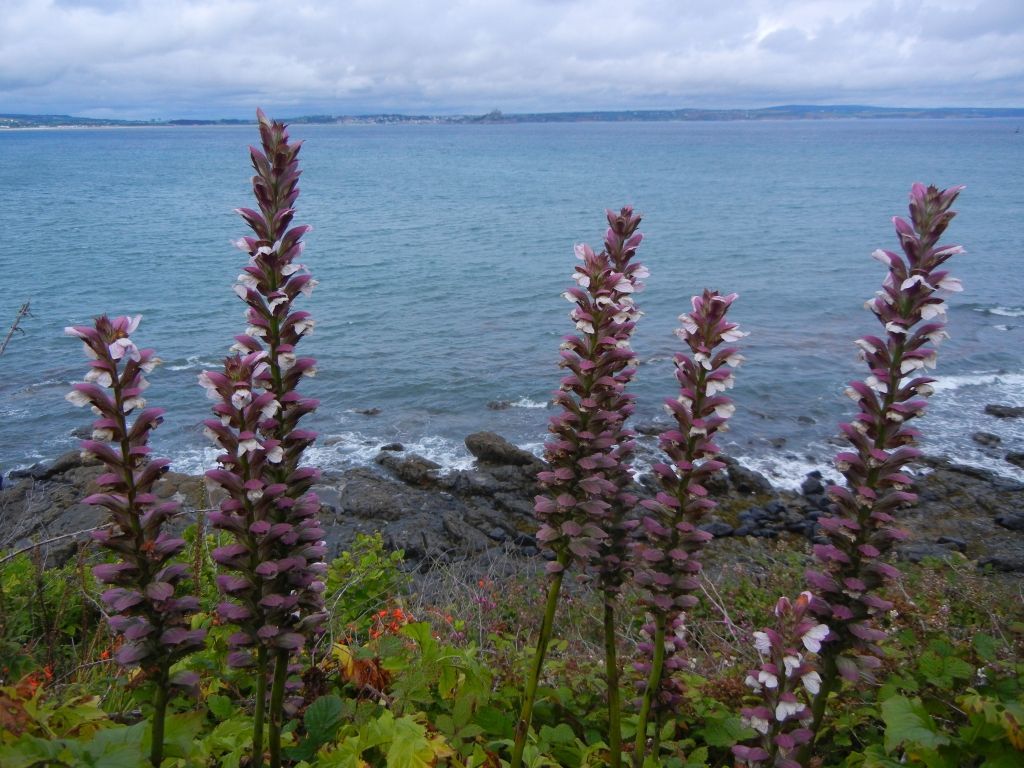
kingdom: Plantae
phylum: Tracheophyta
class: Magnoliopsida
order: Lamiales
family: Acanthaceae
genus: Acanthus
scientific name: Acanthus mollis
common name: Bear's-breech
